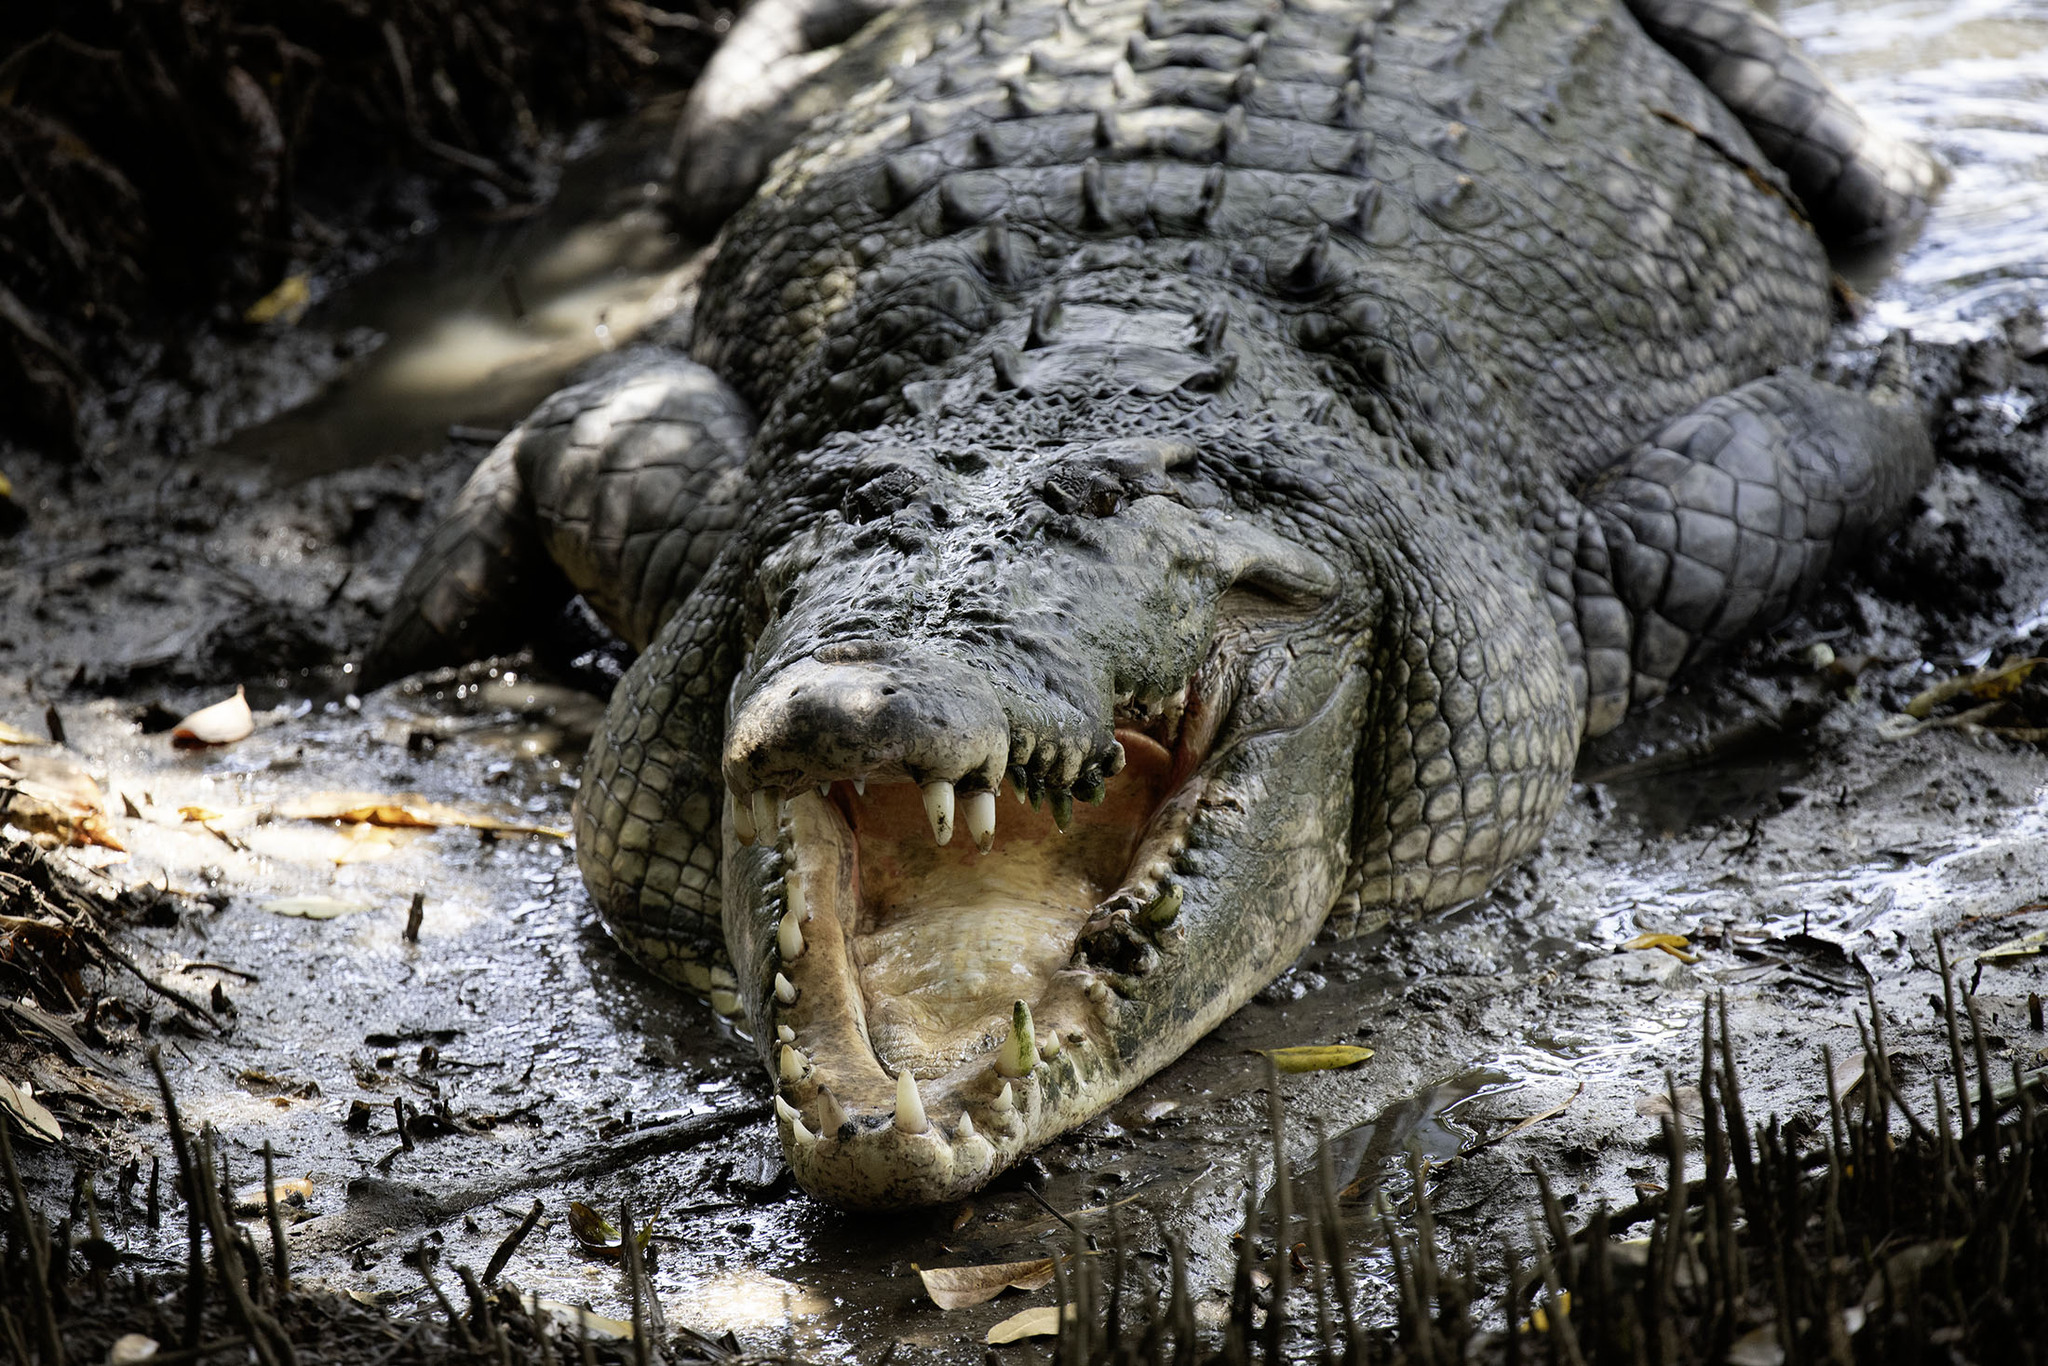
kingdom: Animalia
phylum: Chordata
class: Crocodylia
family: Crocodylidae
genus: Crocodylus
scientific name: Crocodylus porosus
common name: Saltwater crocodile
